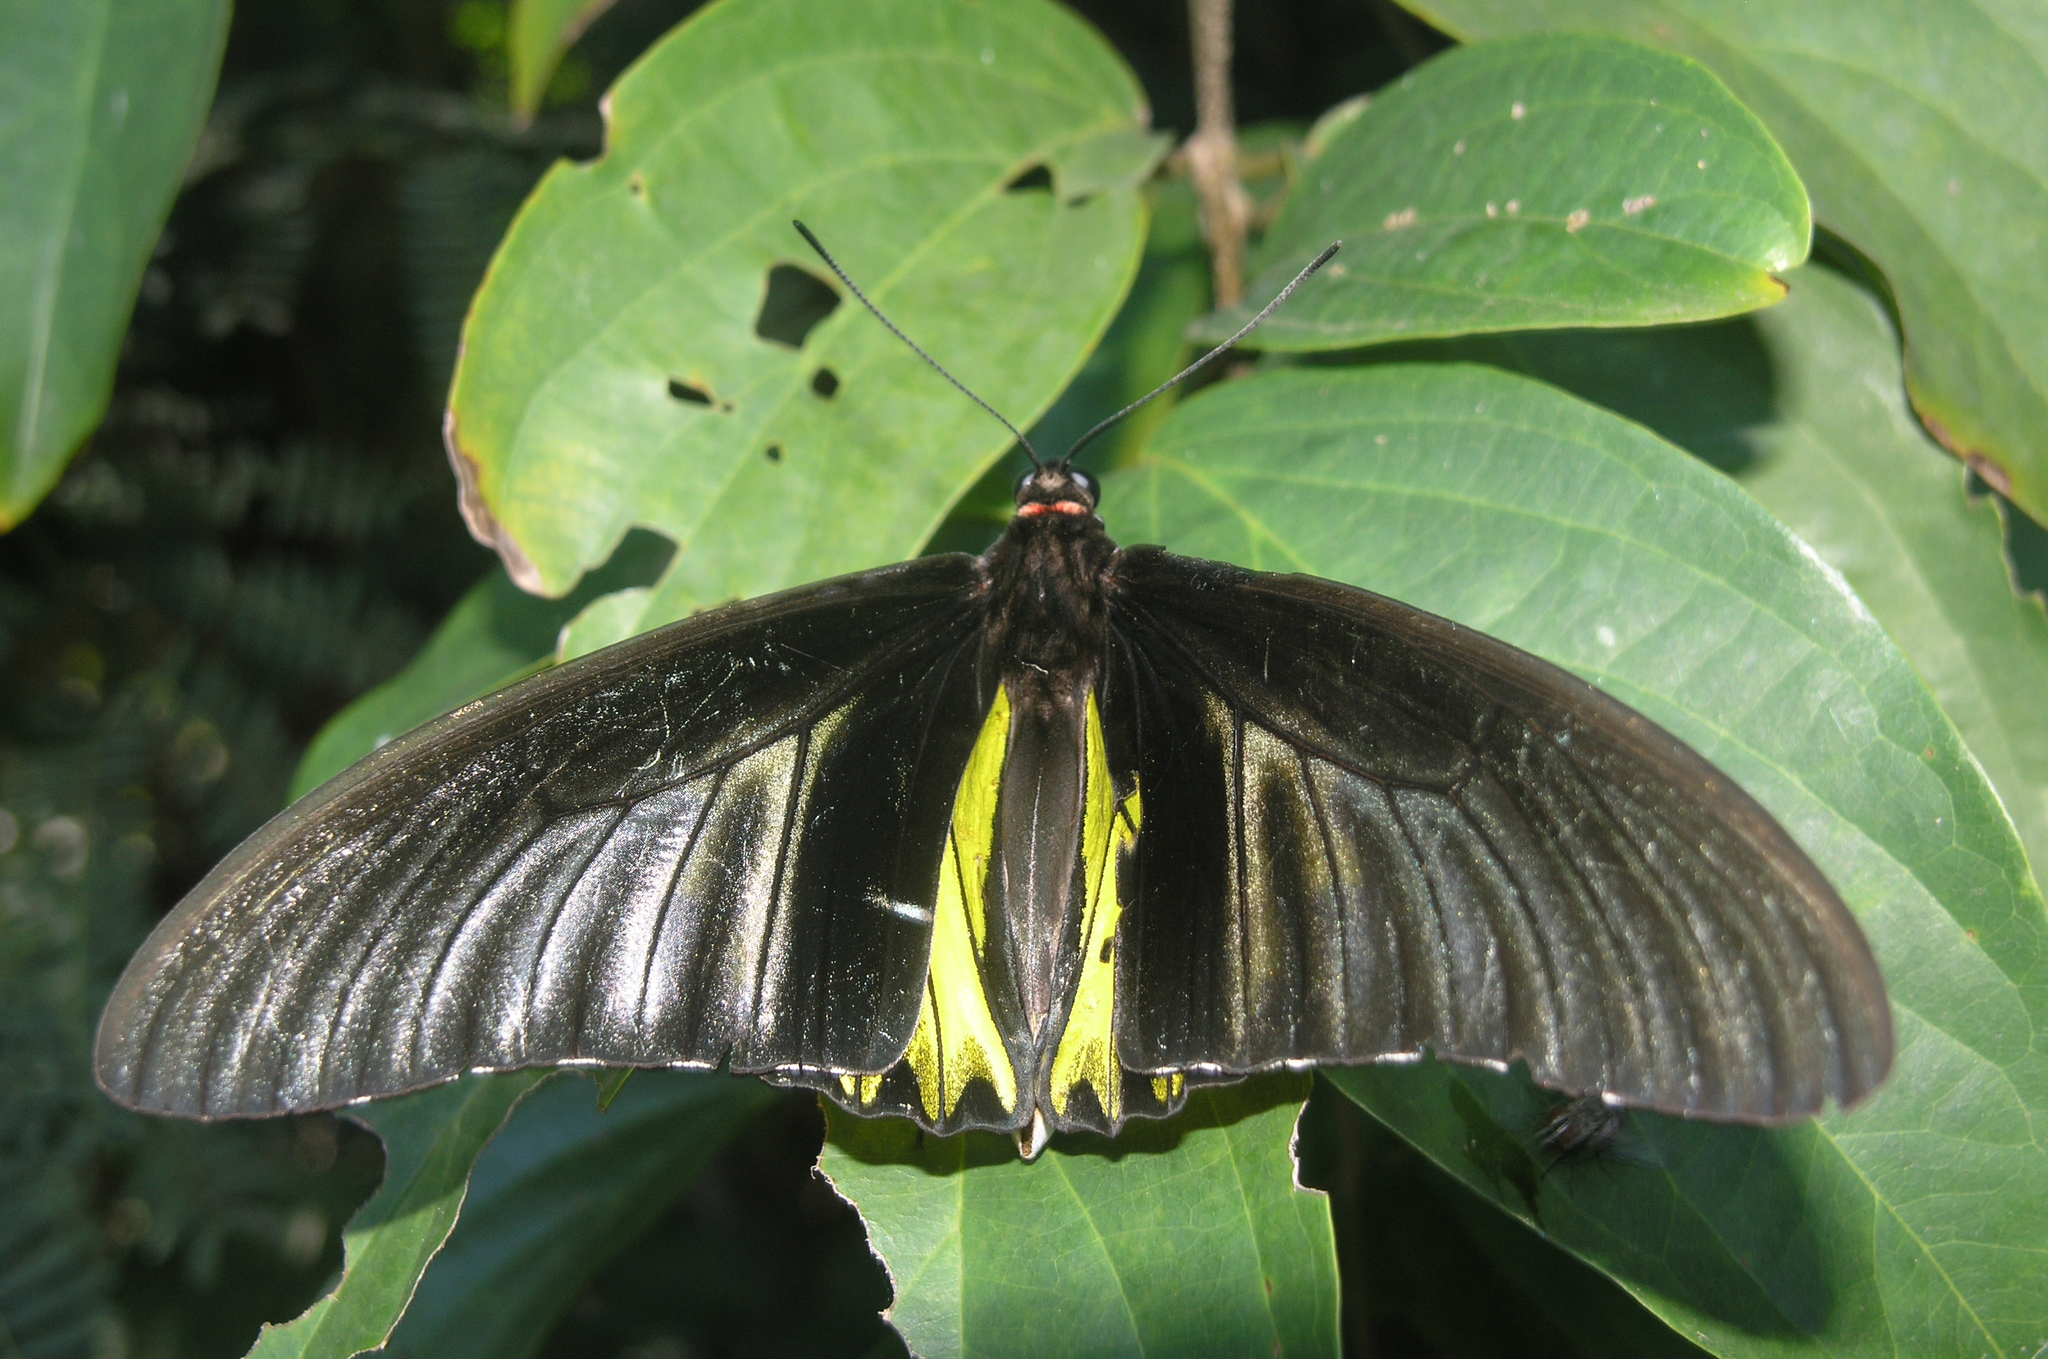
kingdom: Animalia
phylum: Arthropoda
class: Insecta
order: Lepidoptera
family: Papilionidae
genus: Troides
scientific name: Troides aeacus
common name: Golden birdwing
